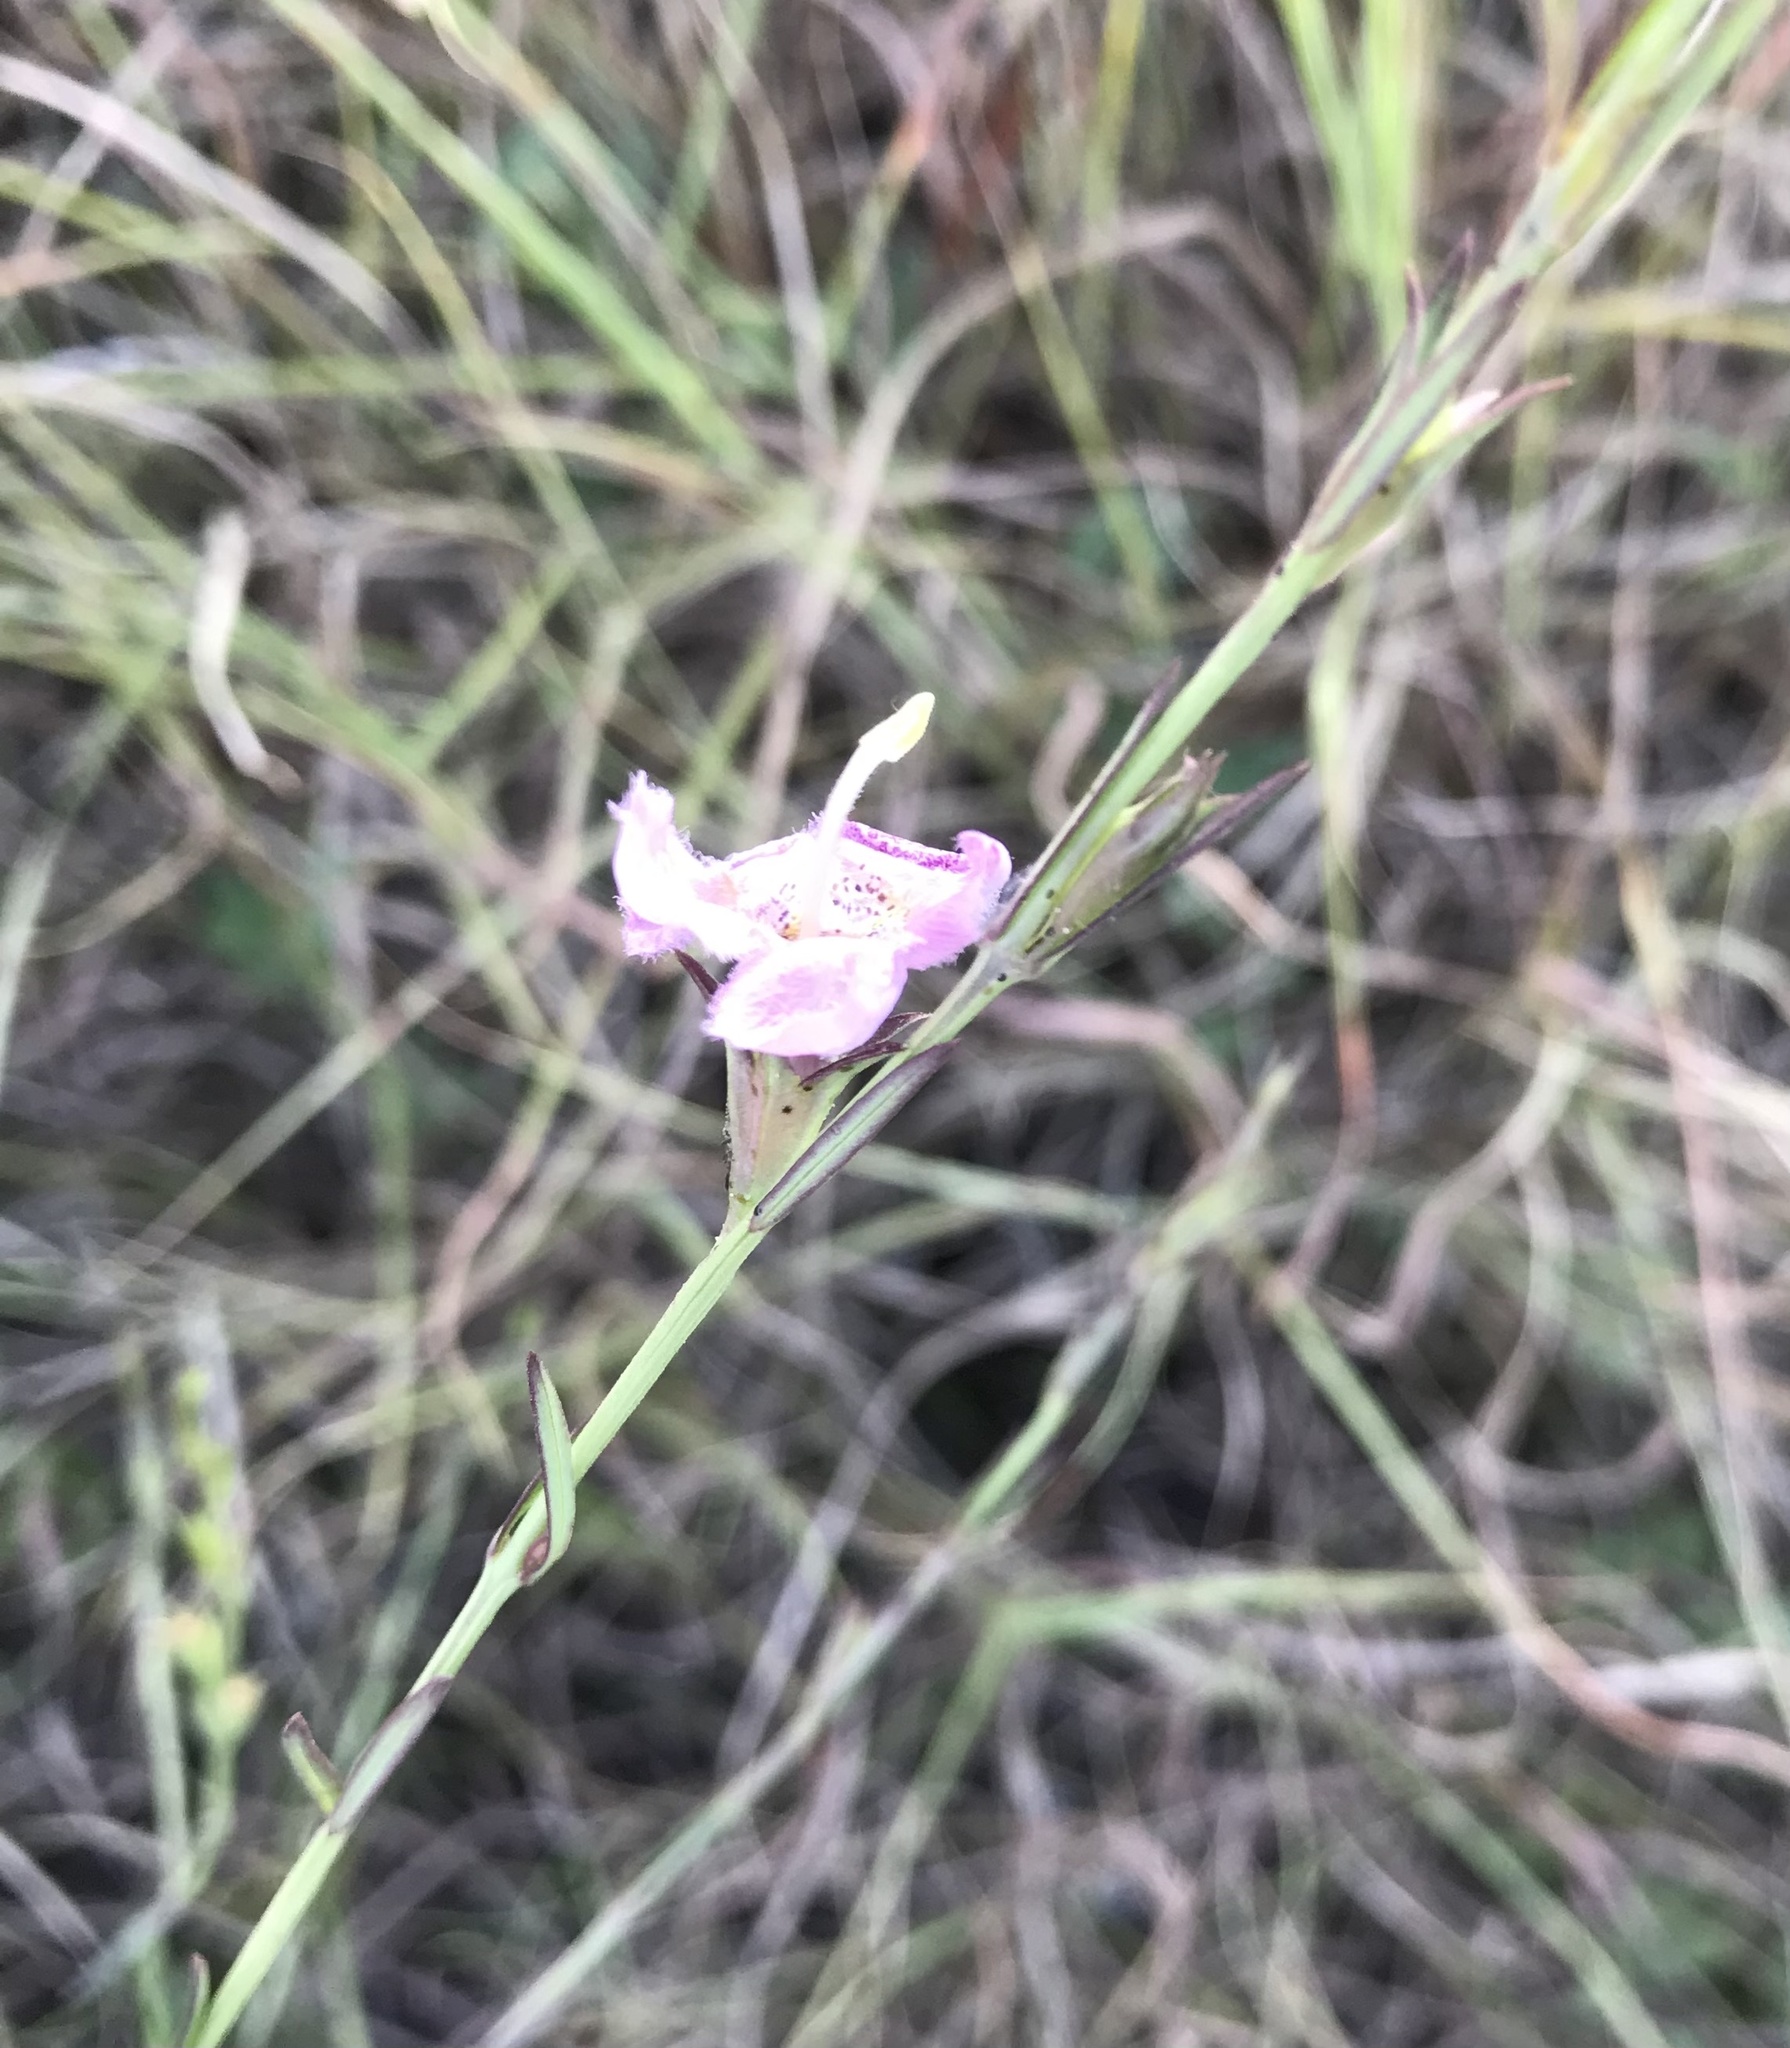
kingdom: Plantae
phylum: Tracheophyta
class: Magnoliopsida
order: Lamiales
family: Orobanchaceae
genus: Agalinis
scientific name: Agalinis heterophylla
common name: Prairie agalinis
